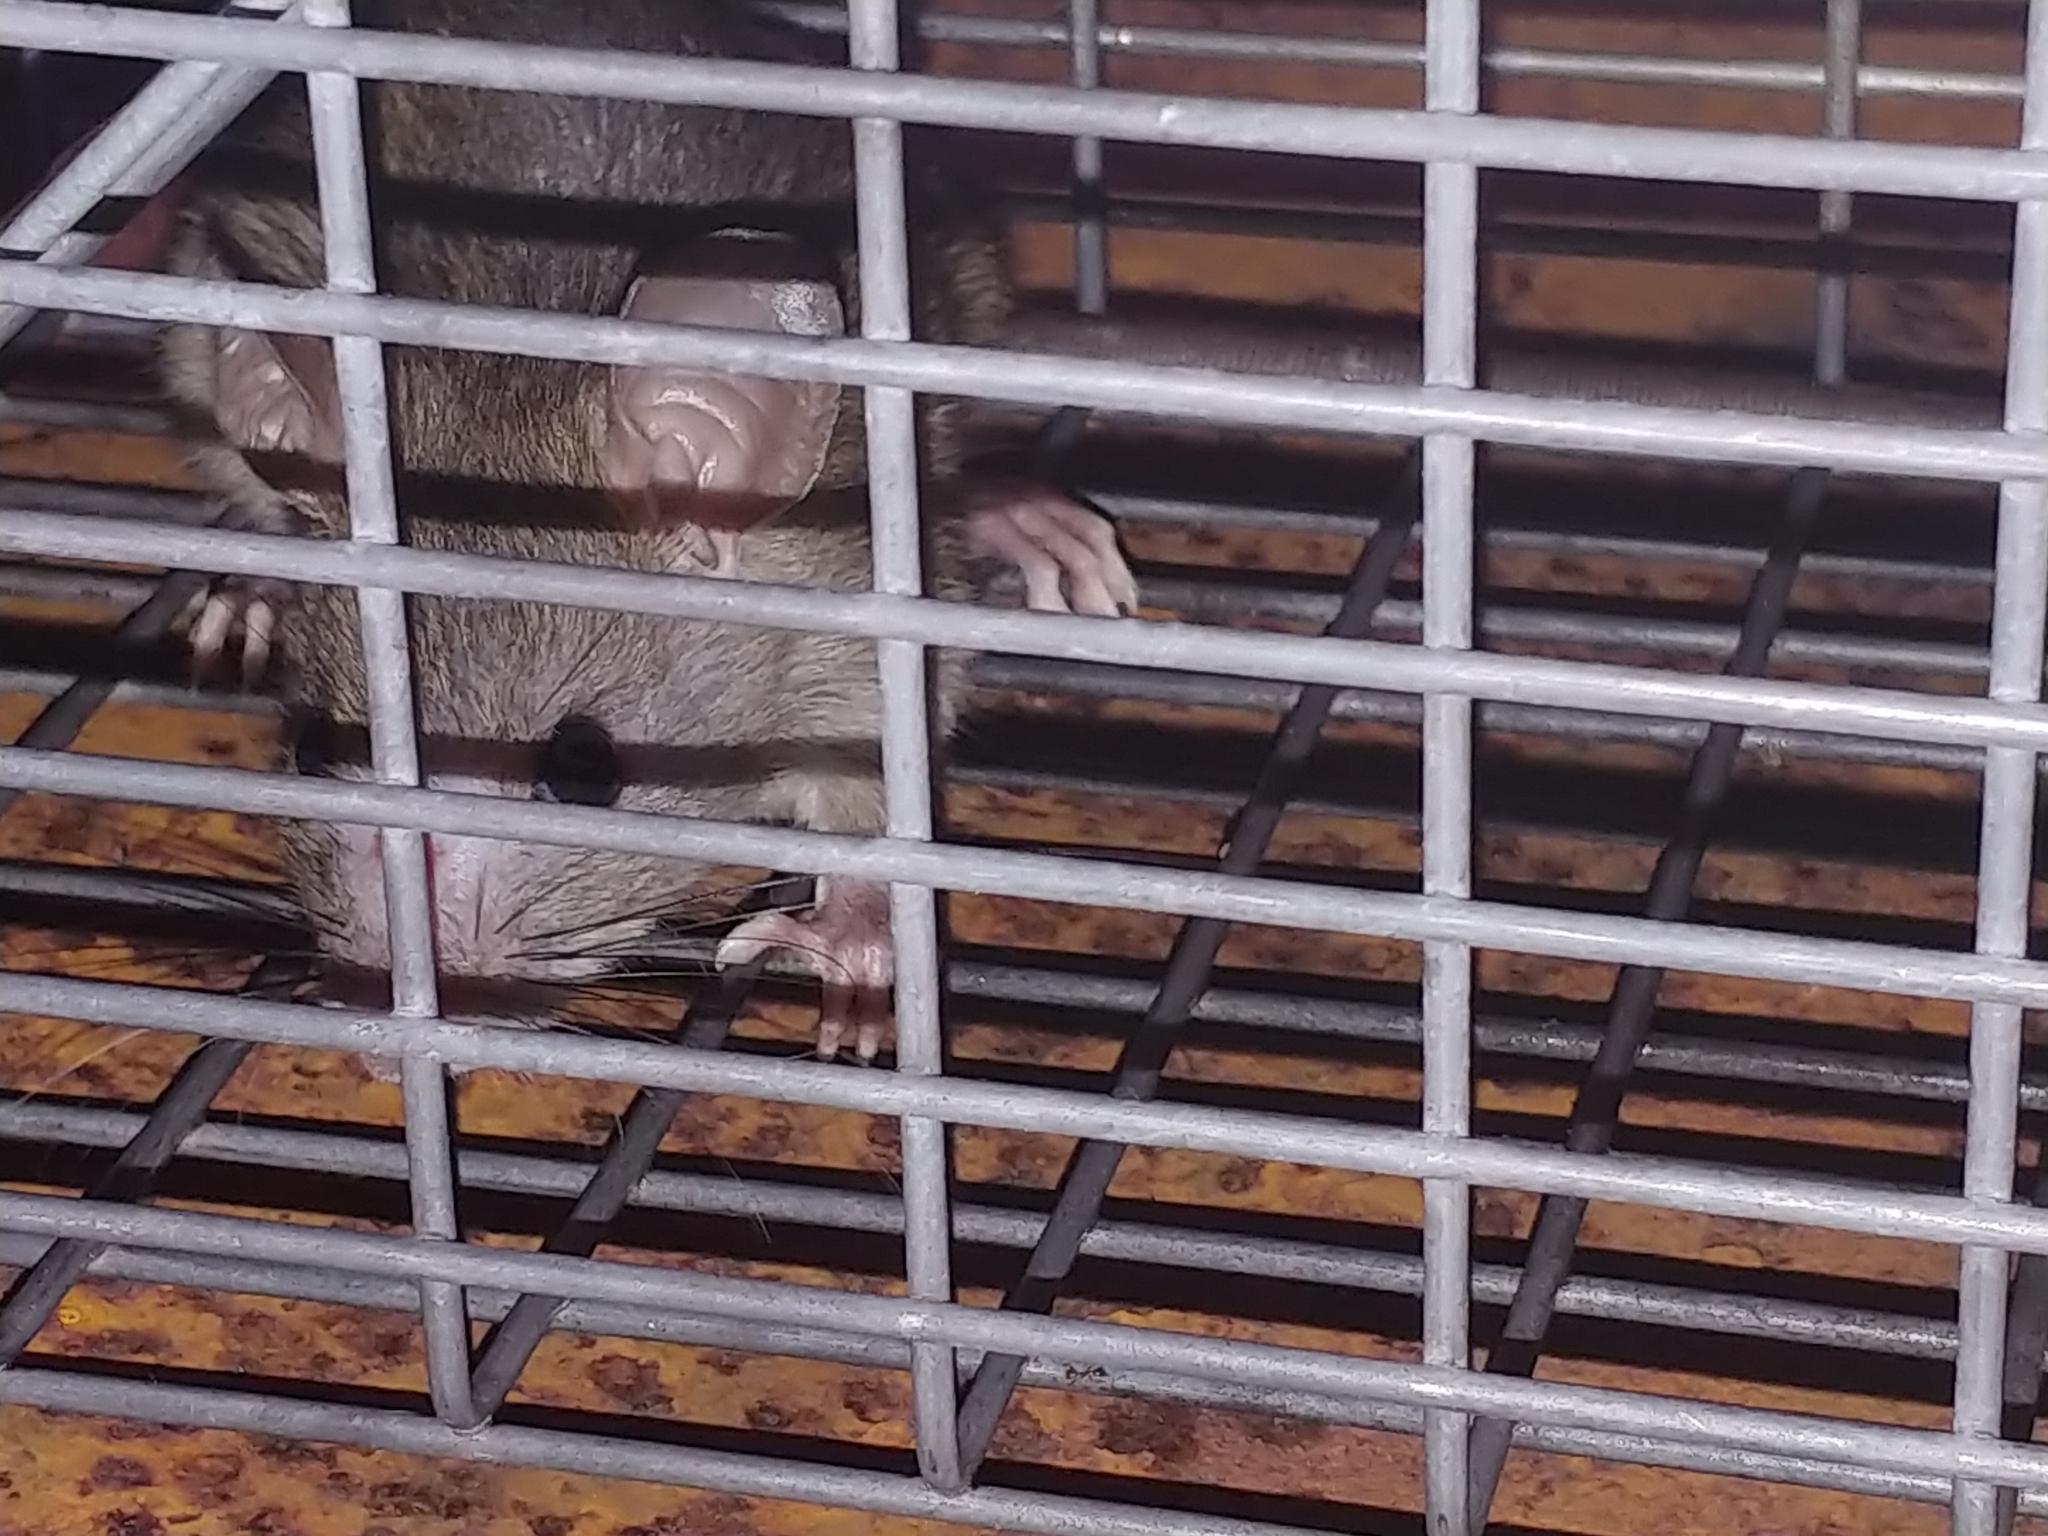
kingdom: Animalia
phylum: Chordata
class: Mammalia
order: Rodentia
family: Muridae
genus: Rattus
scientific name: Rattus rattus
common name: Black rat
